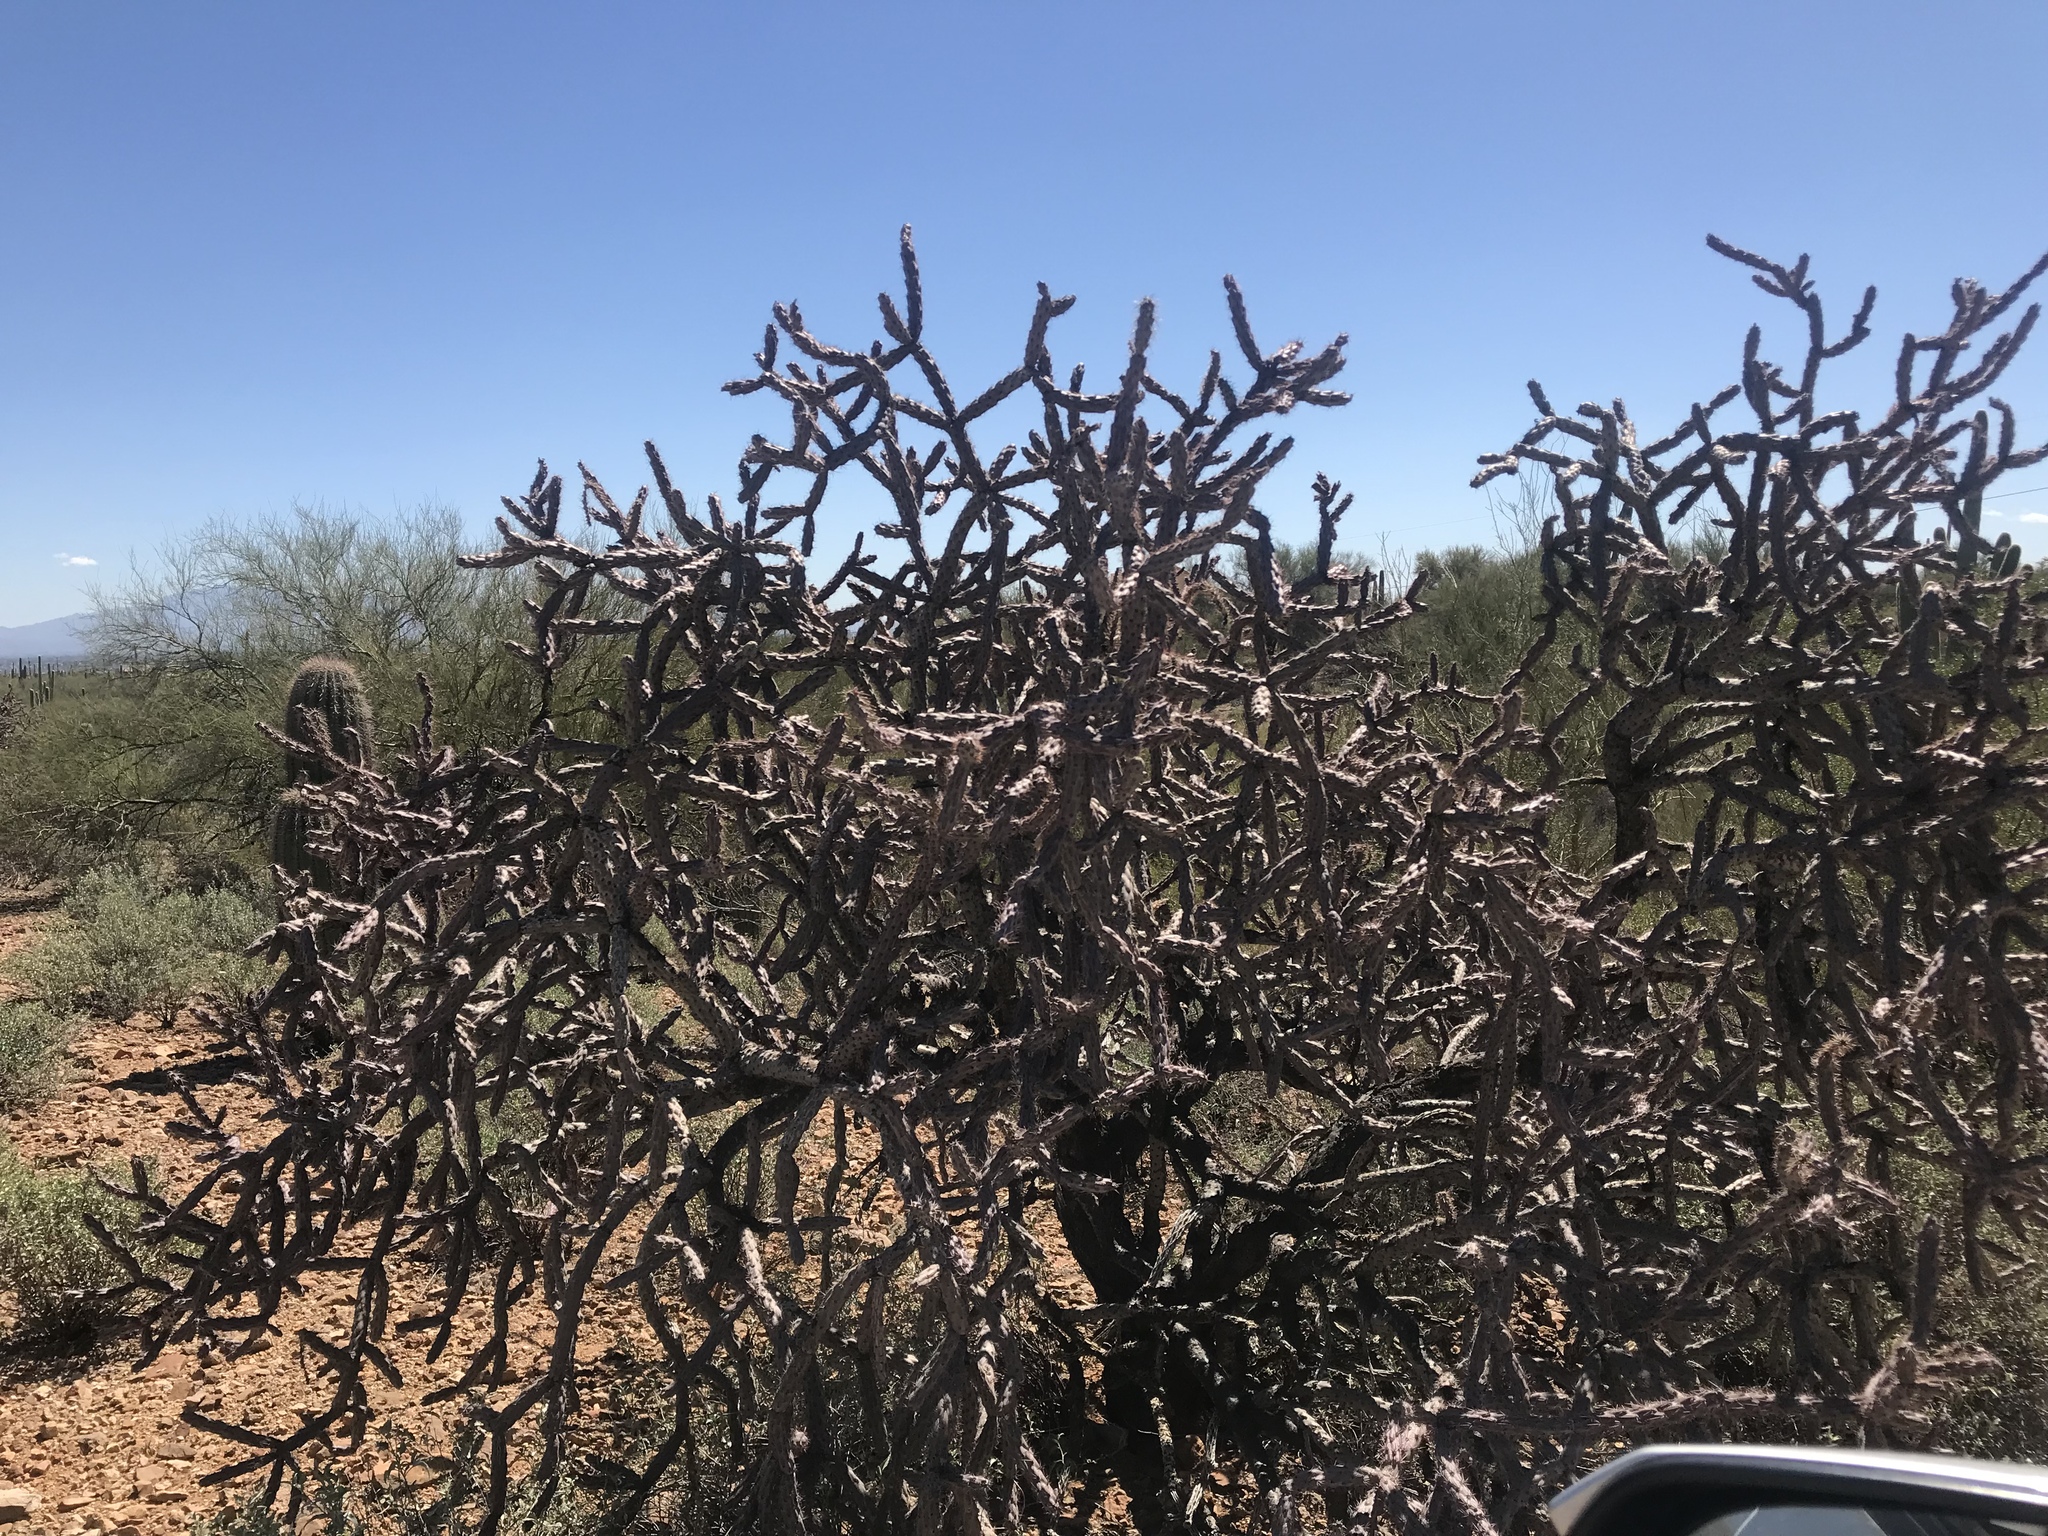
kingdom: Plantae
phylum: Tracheophyta
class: Magnoliopsida
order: Caryophyllales
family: Cactaceae
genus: Cylindropuntia
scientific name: Cylindropuntia thurberi
